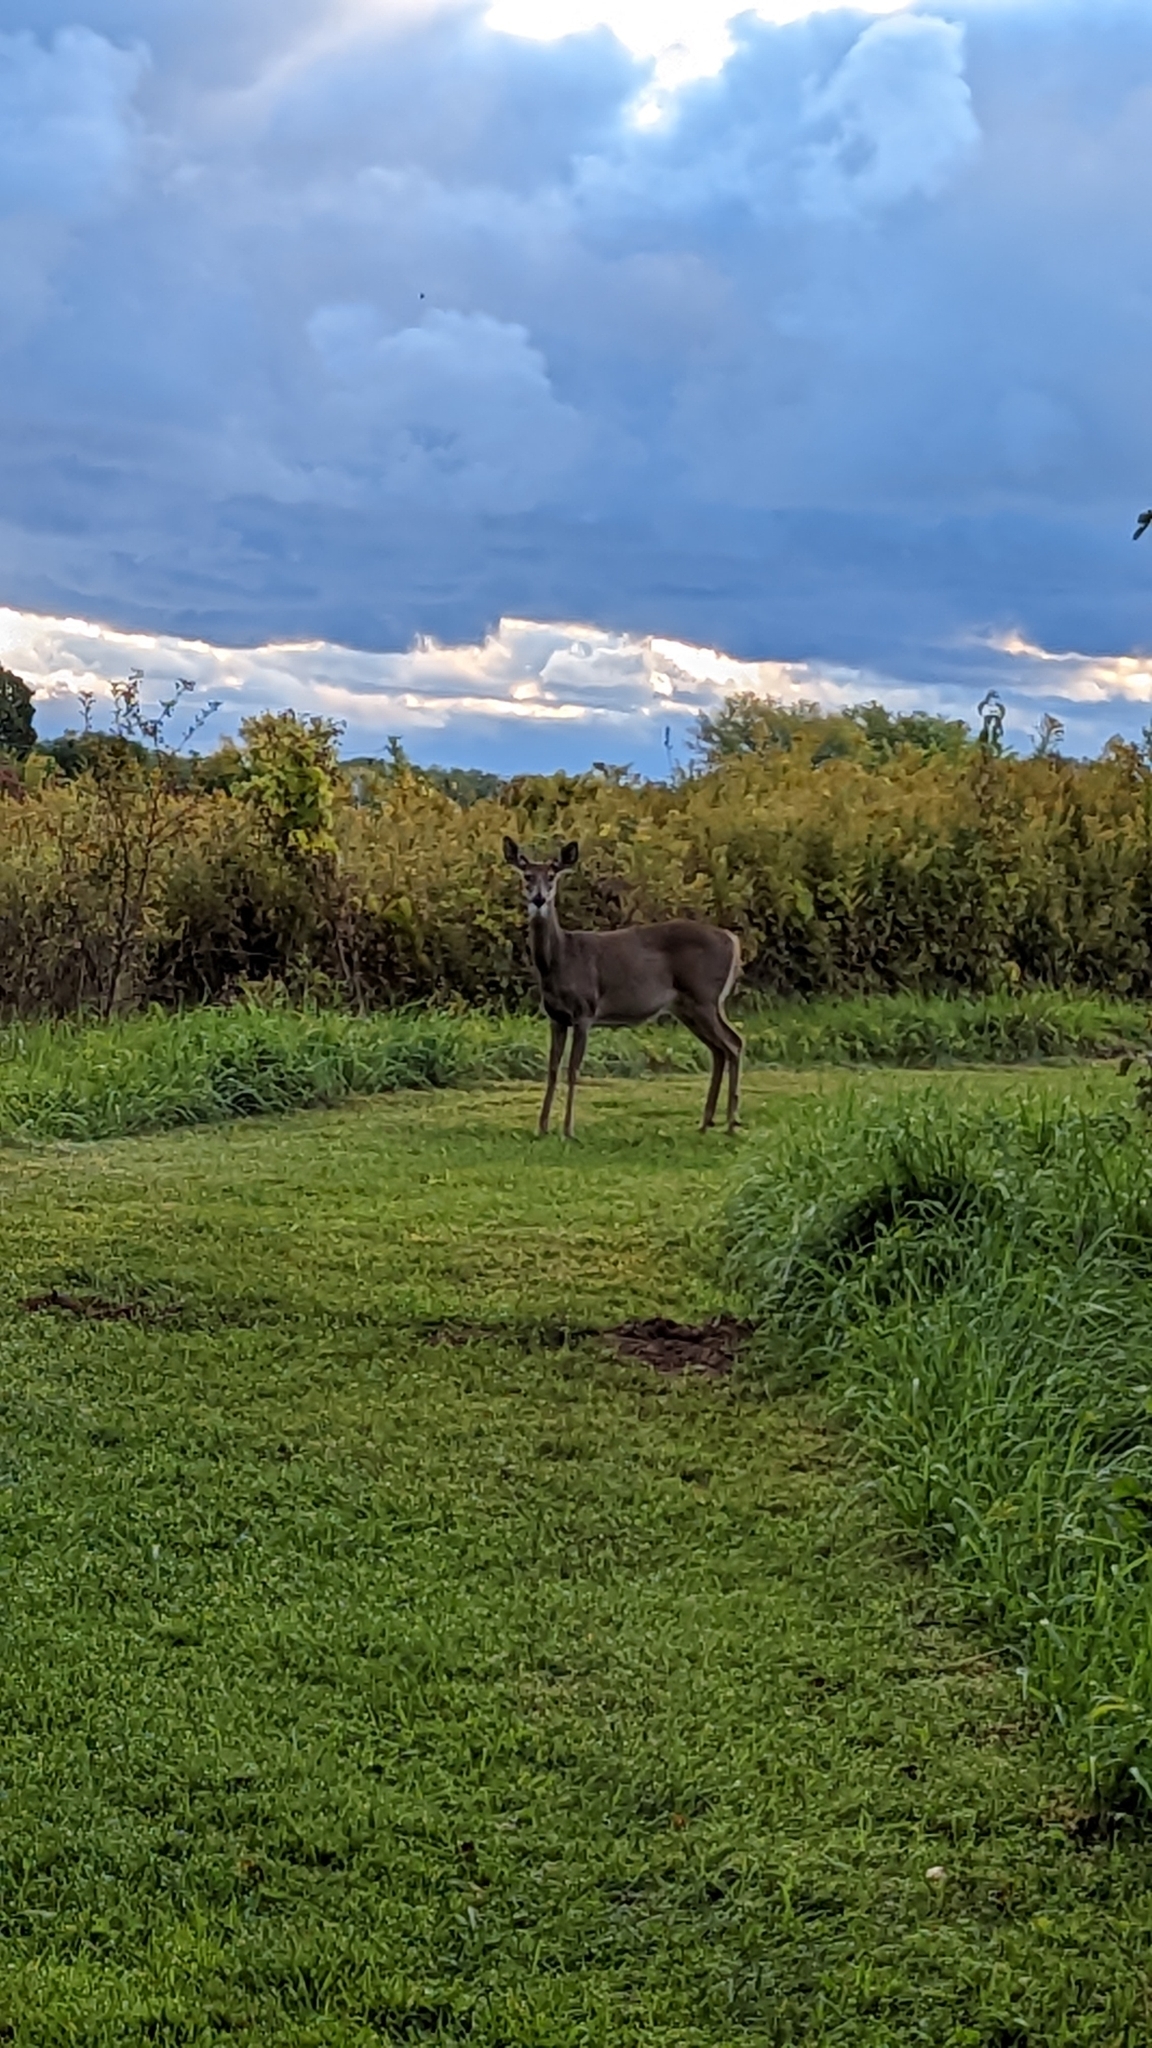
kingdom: Animalia
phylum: Chordata
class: Mammalia
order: Artiodactyla
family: Cervidae
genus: Odocoileus
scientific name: Odocoileus virginianus
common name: White-tailed deer
